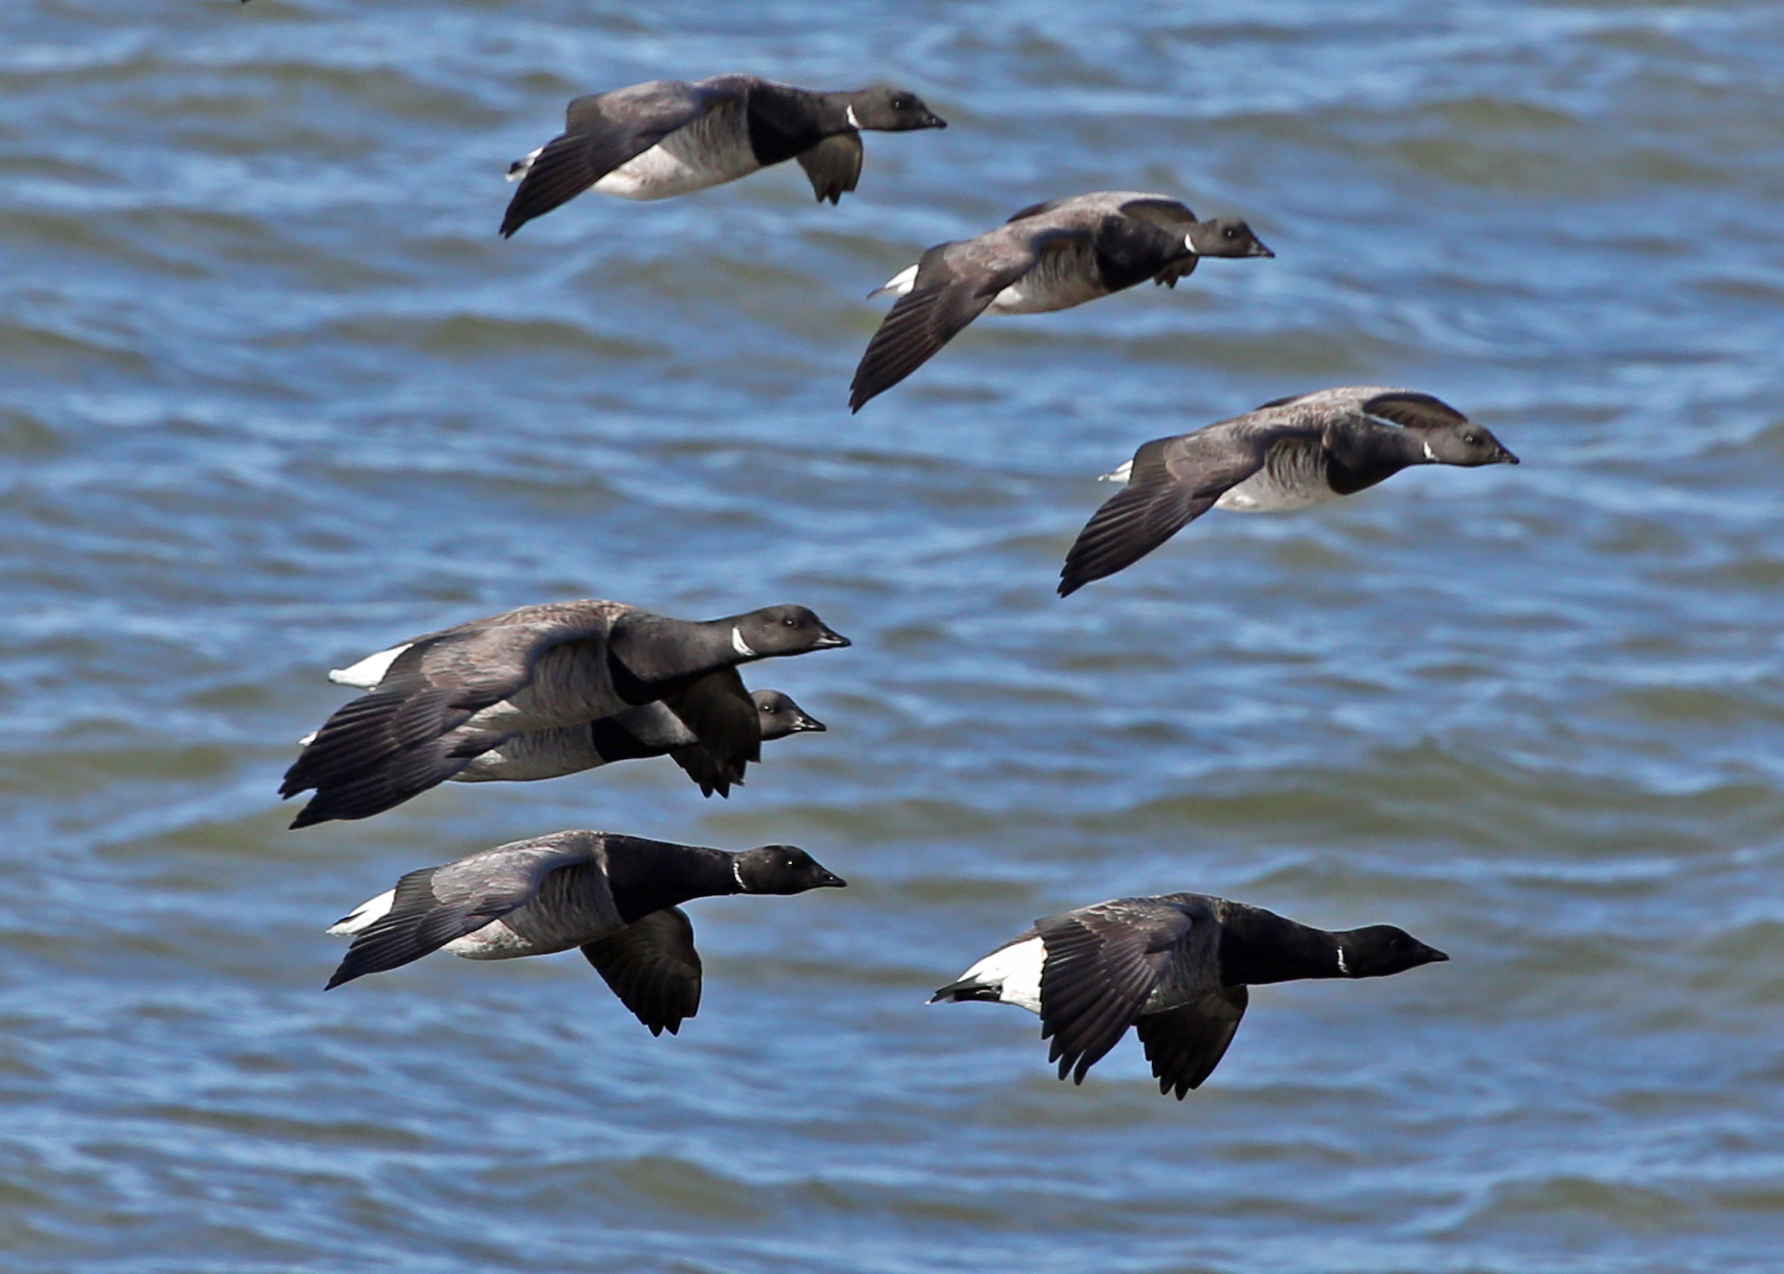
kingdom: Animalia
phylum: Chordata
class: Aves
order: Anseriformes
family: Anatidae
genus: Branta
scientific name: Branta bernicla
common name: Brant goose
